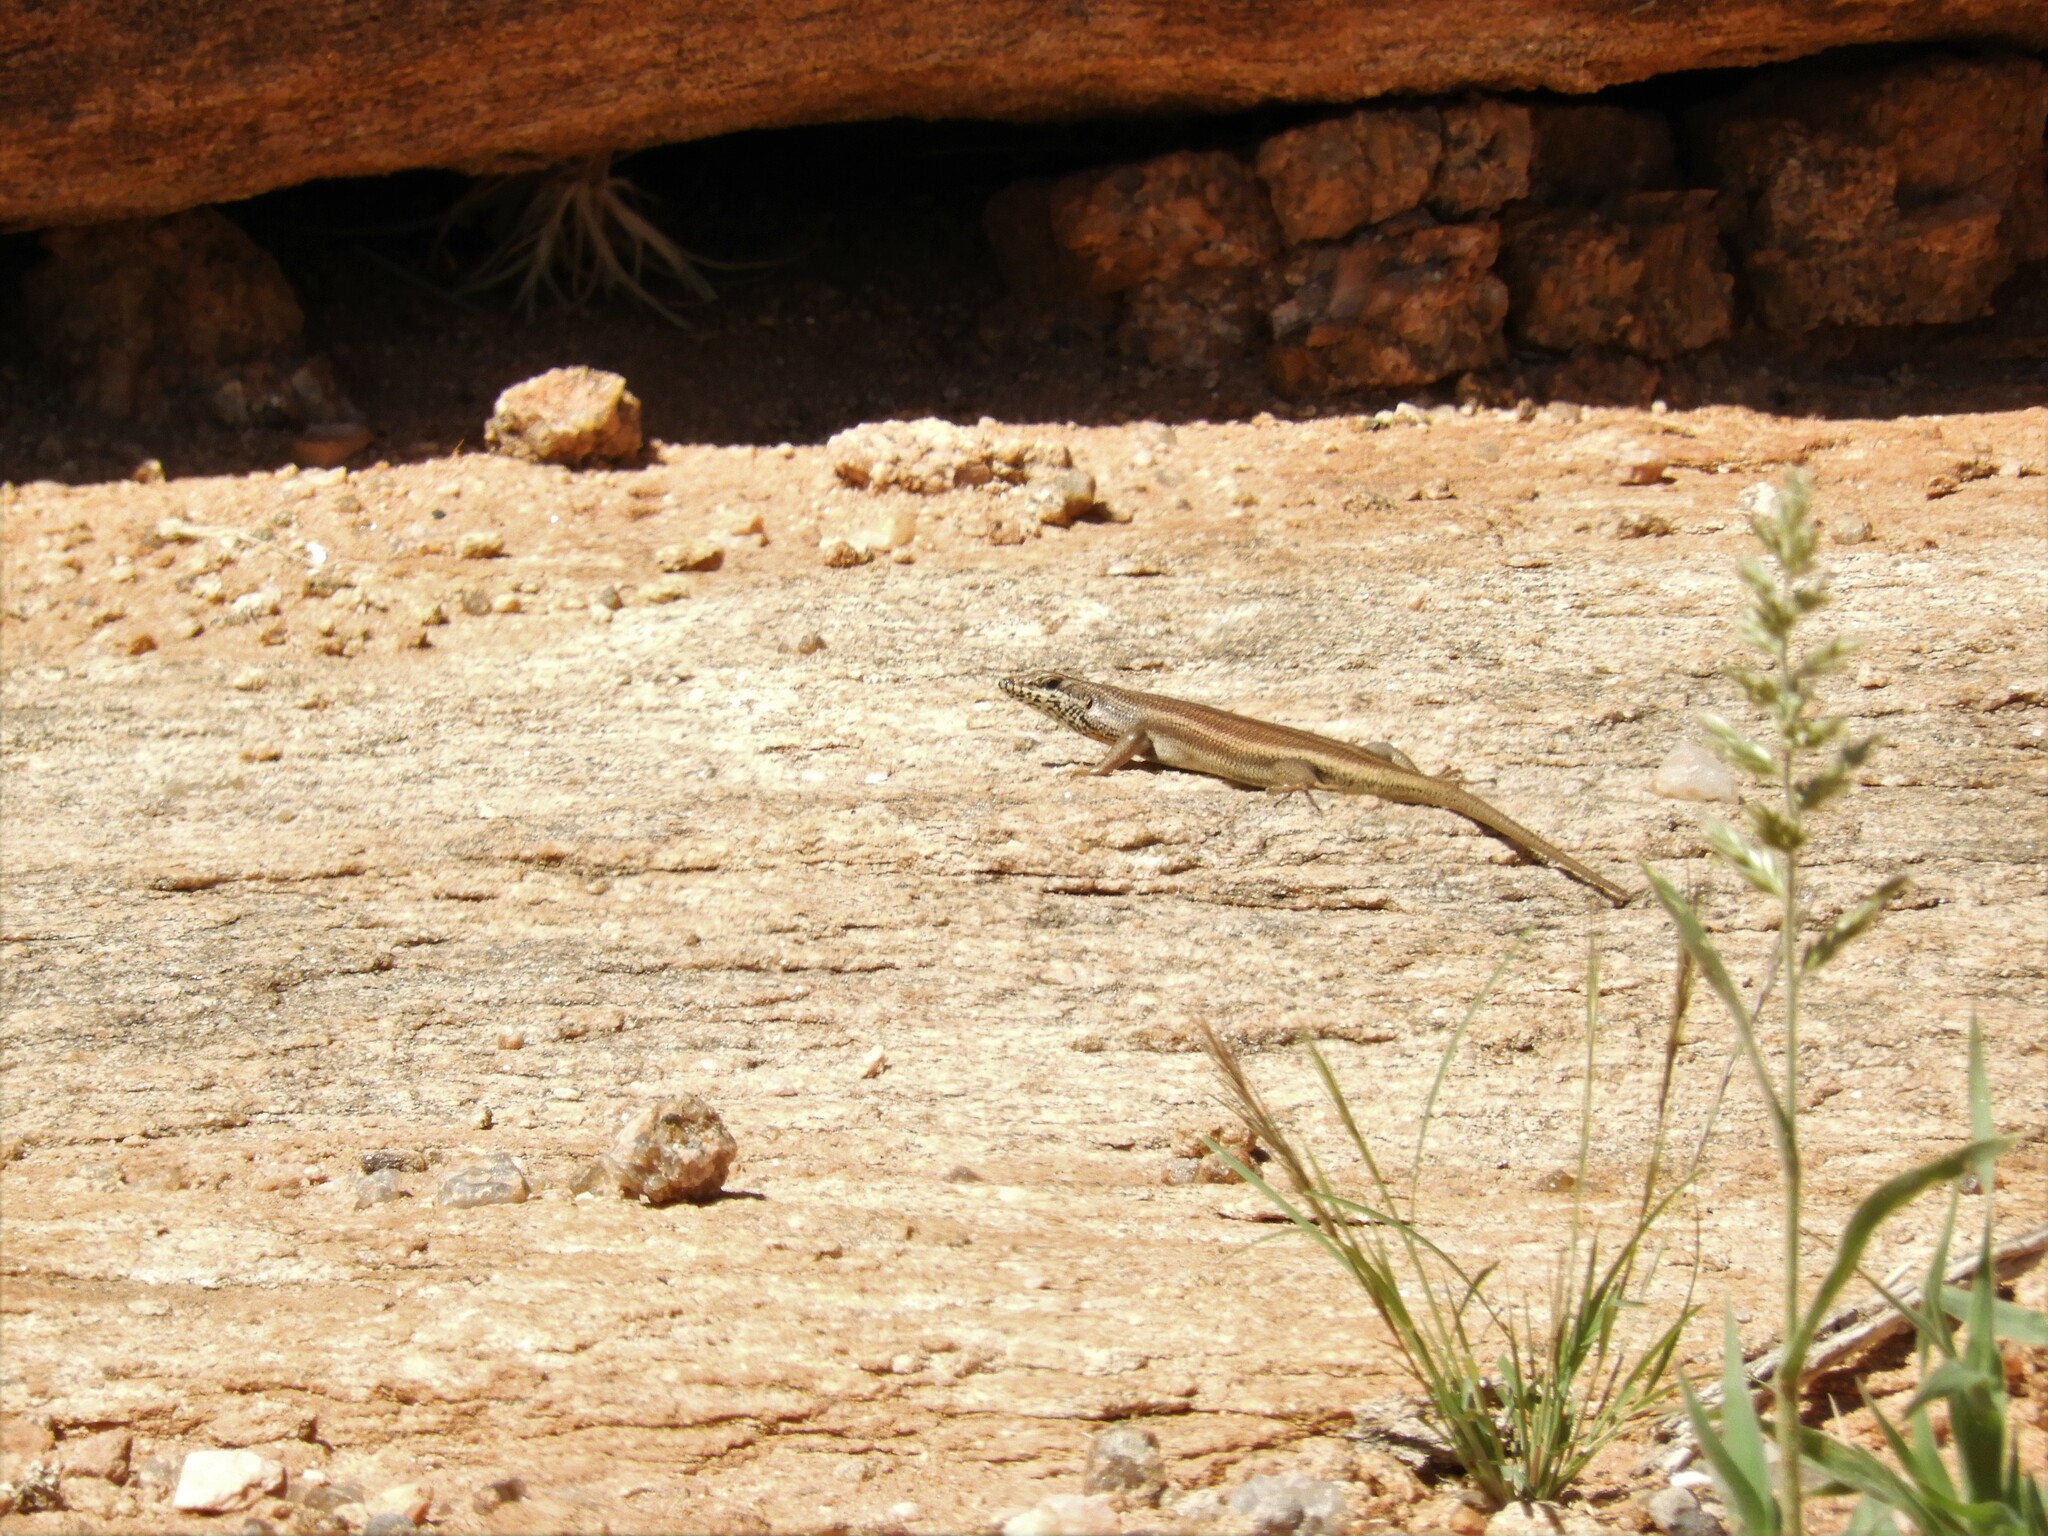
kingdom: Animalia
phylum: Chordata
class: Squamata
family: Scincidae
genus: Trachylepis
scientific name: Trachylepis sulcata
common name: Western rock skink
